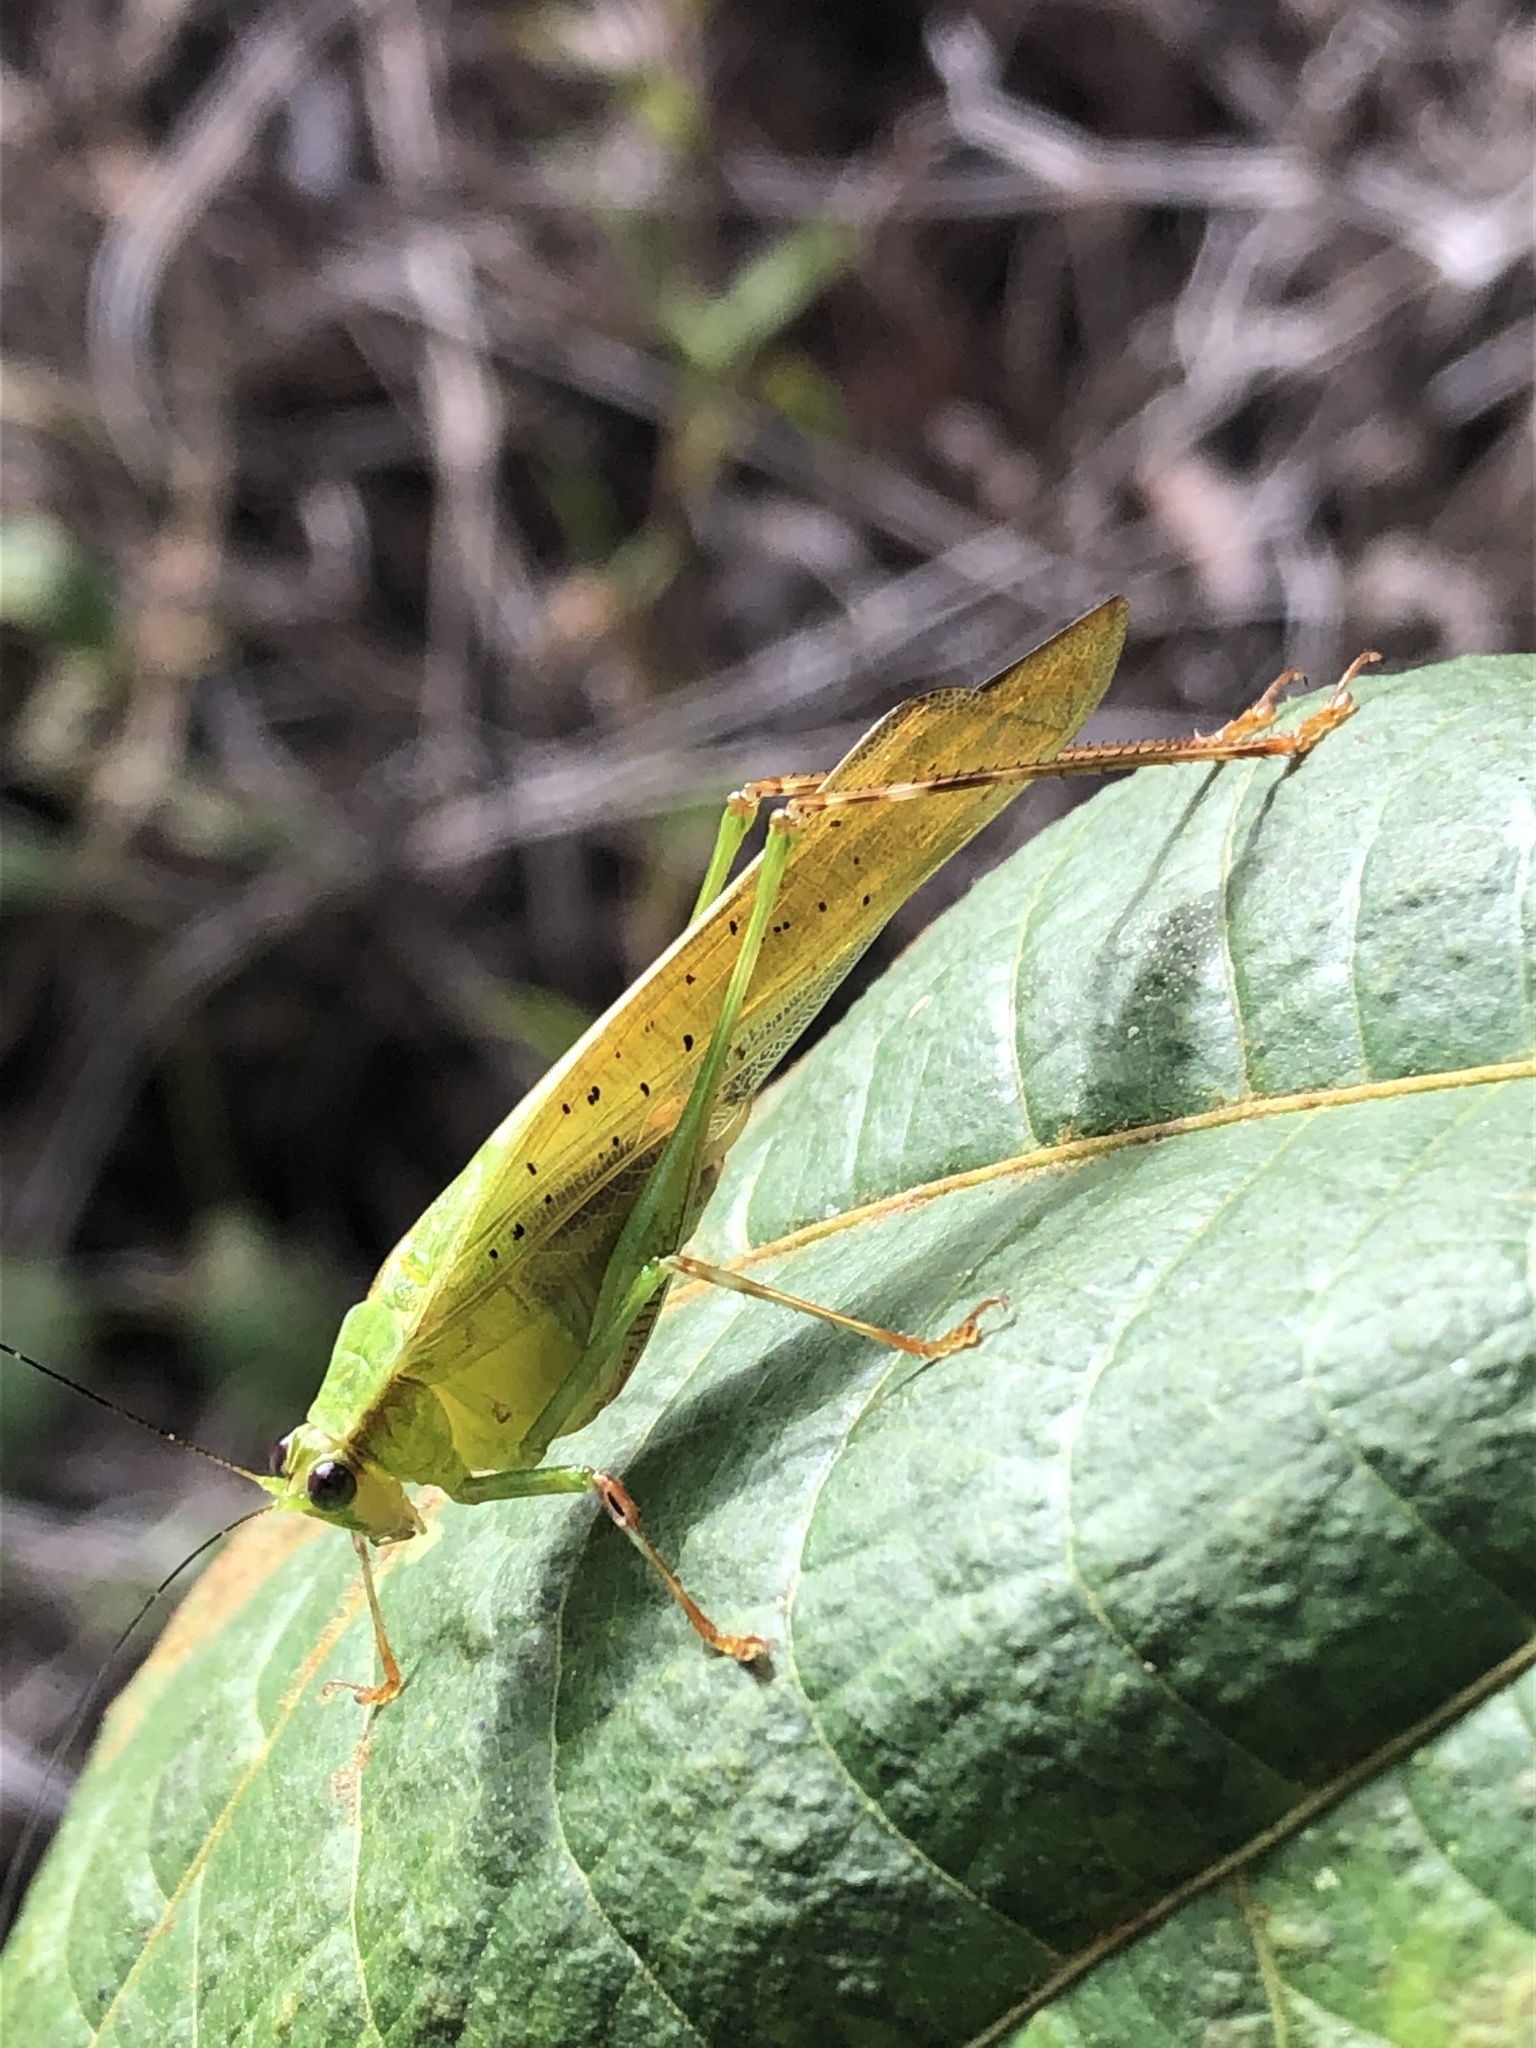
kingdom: Animalia
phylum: Arthropoda
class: Insecta
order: Orthoptera
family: Tettigoniidae
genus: Zenirella
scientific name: Zenirella punctata
